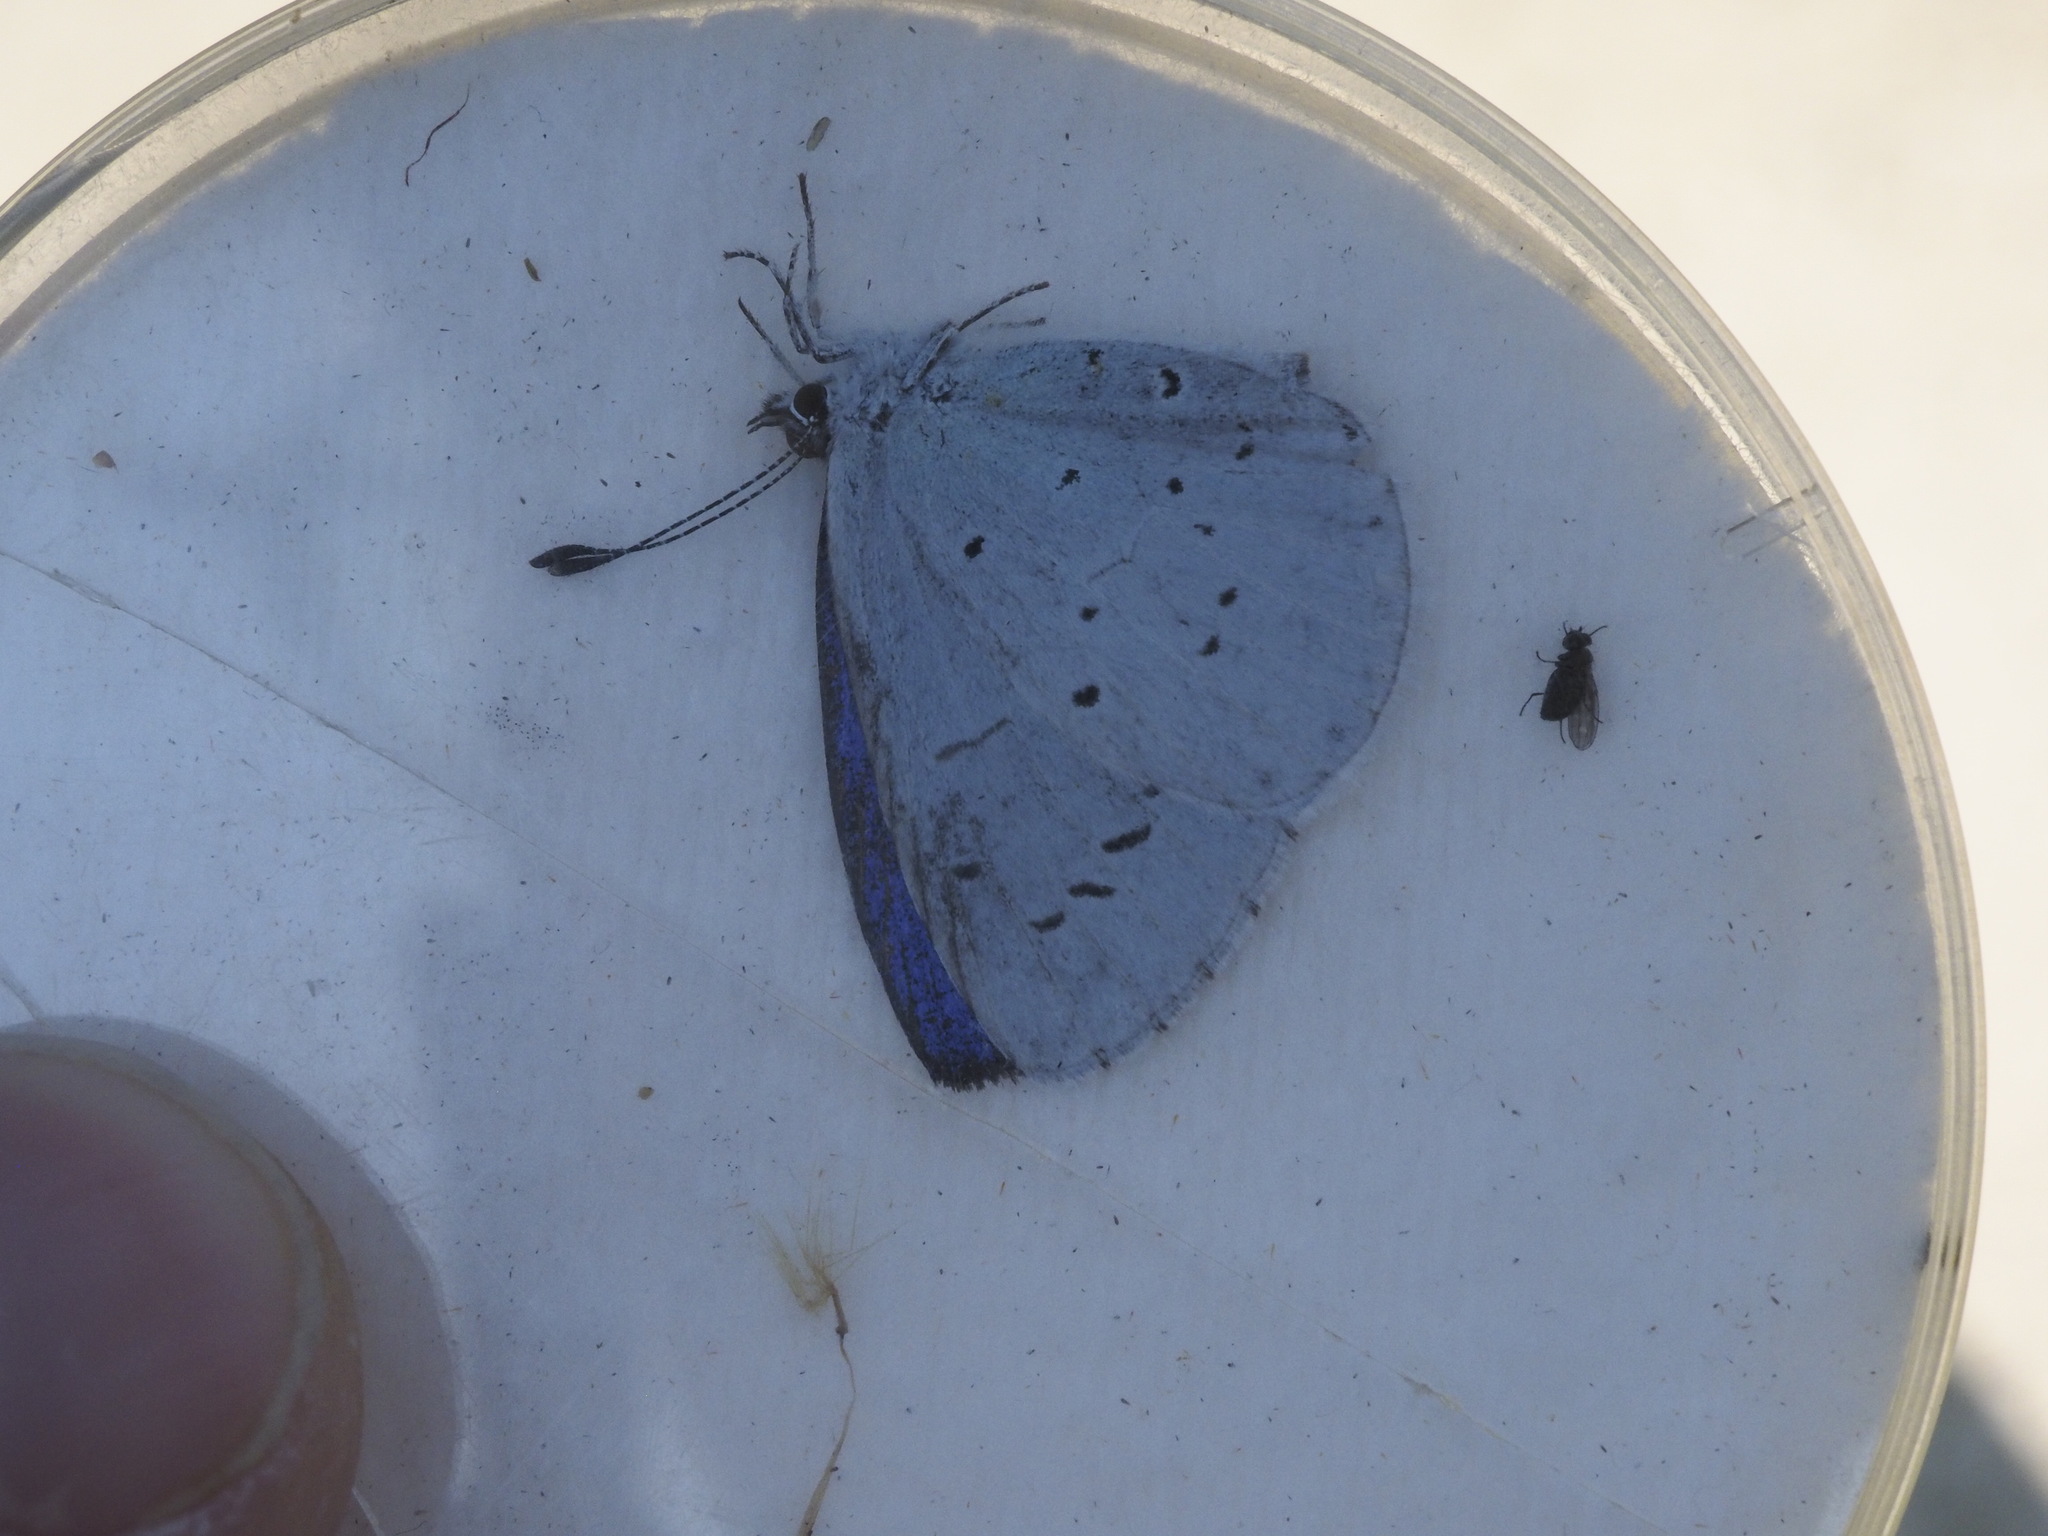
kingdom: Animalia
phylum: Arthropoda
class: Insecta
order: Lepidoptera
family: Lycaenidae
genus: Celastrina
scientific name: Celastrina argiolus
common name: Holly blue
